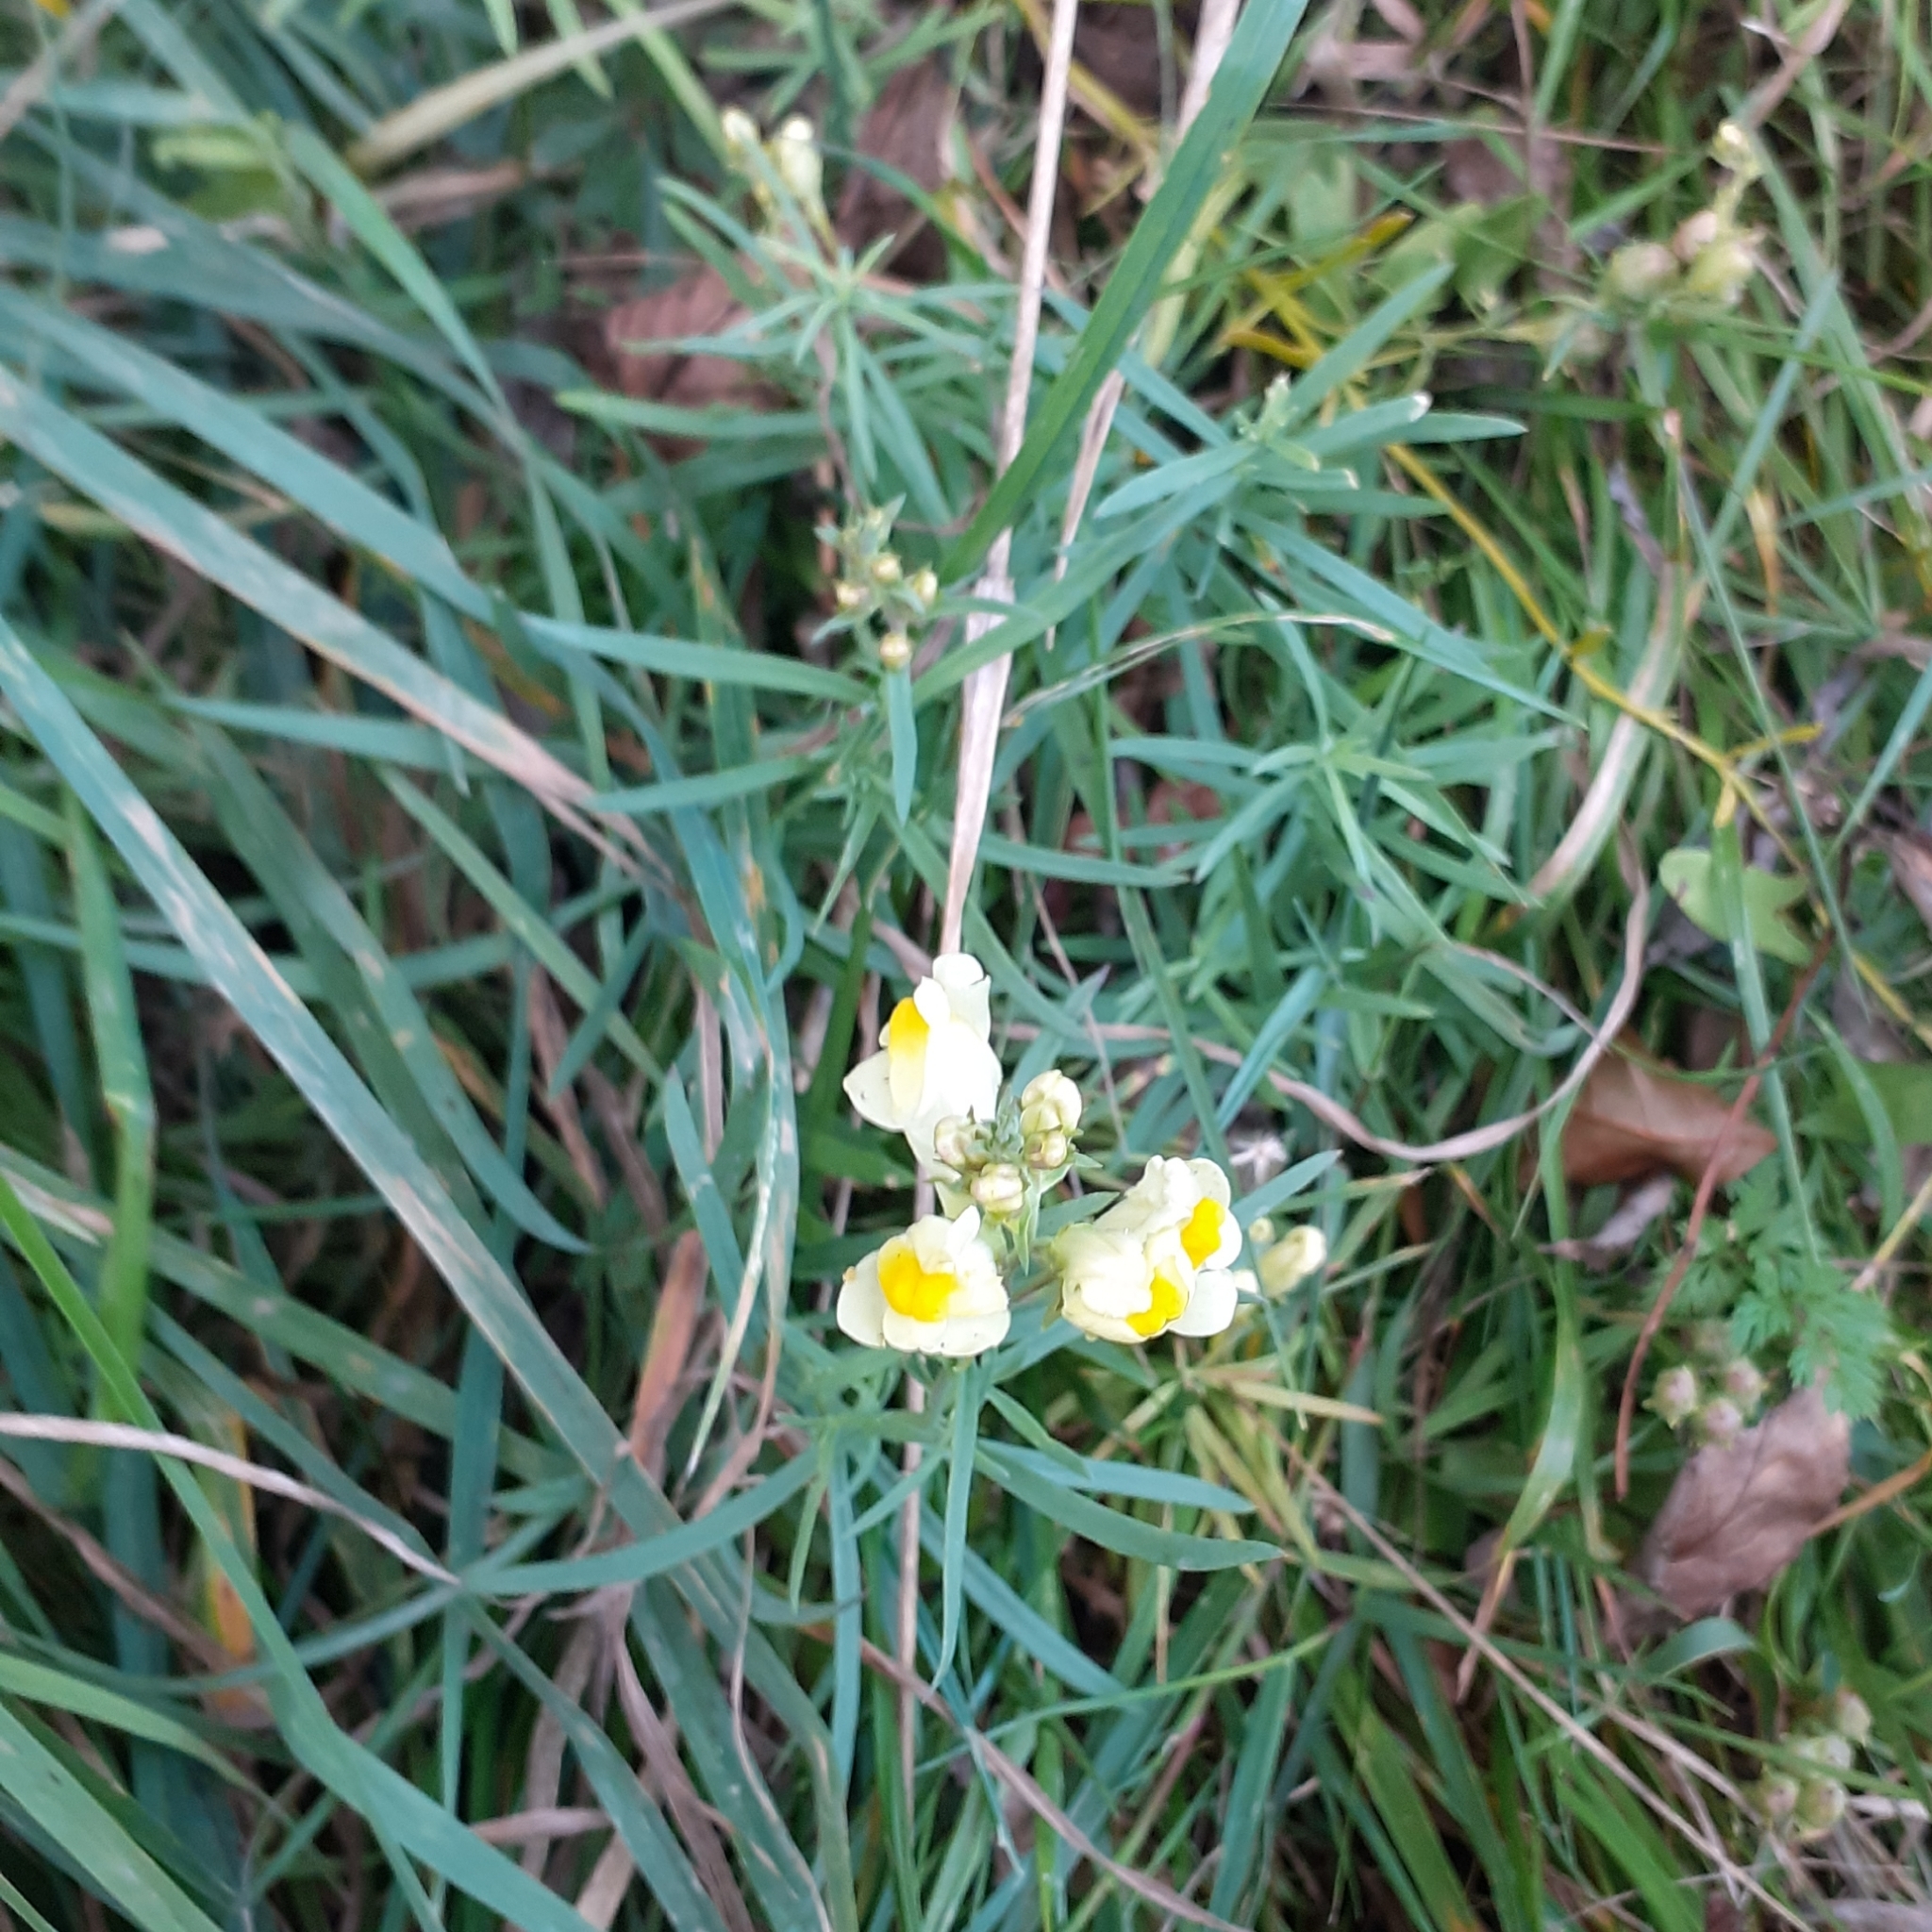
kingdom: Plantae
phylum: Tracheophyta
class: Magnoliopsida
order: Lamiales
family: Plantaginaceae
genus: Linaria
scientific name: Linaria vulgaris
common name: Butter and eggs
